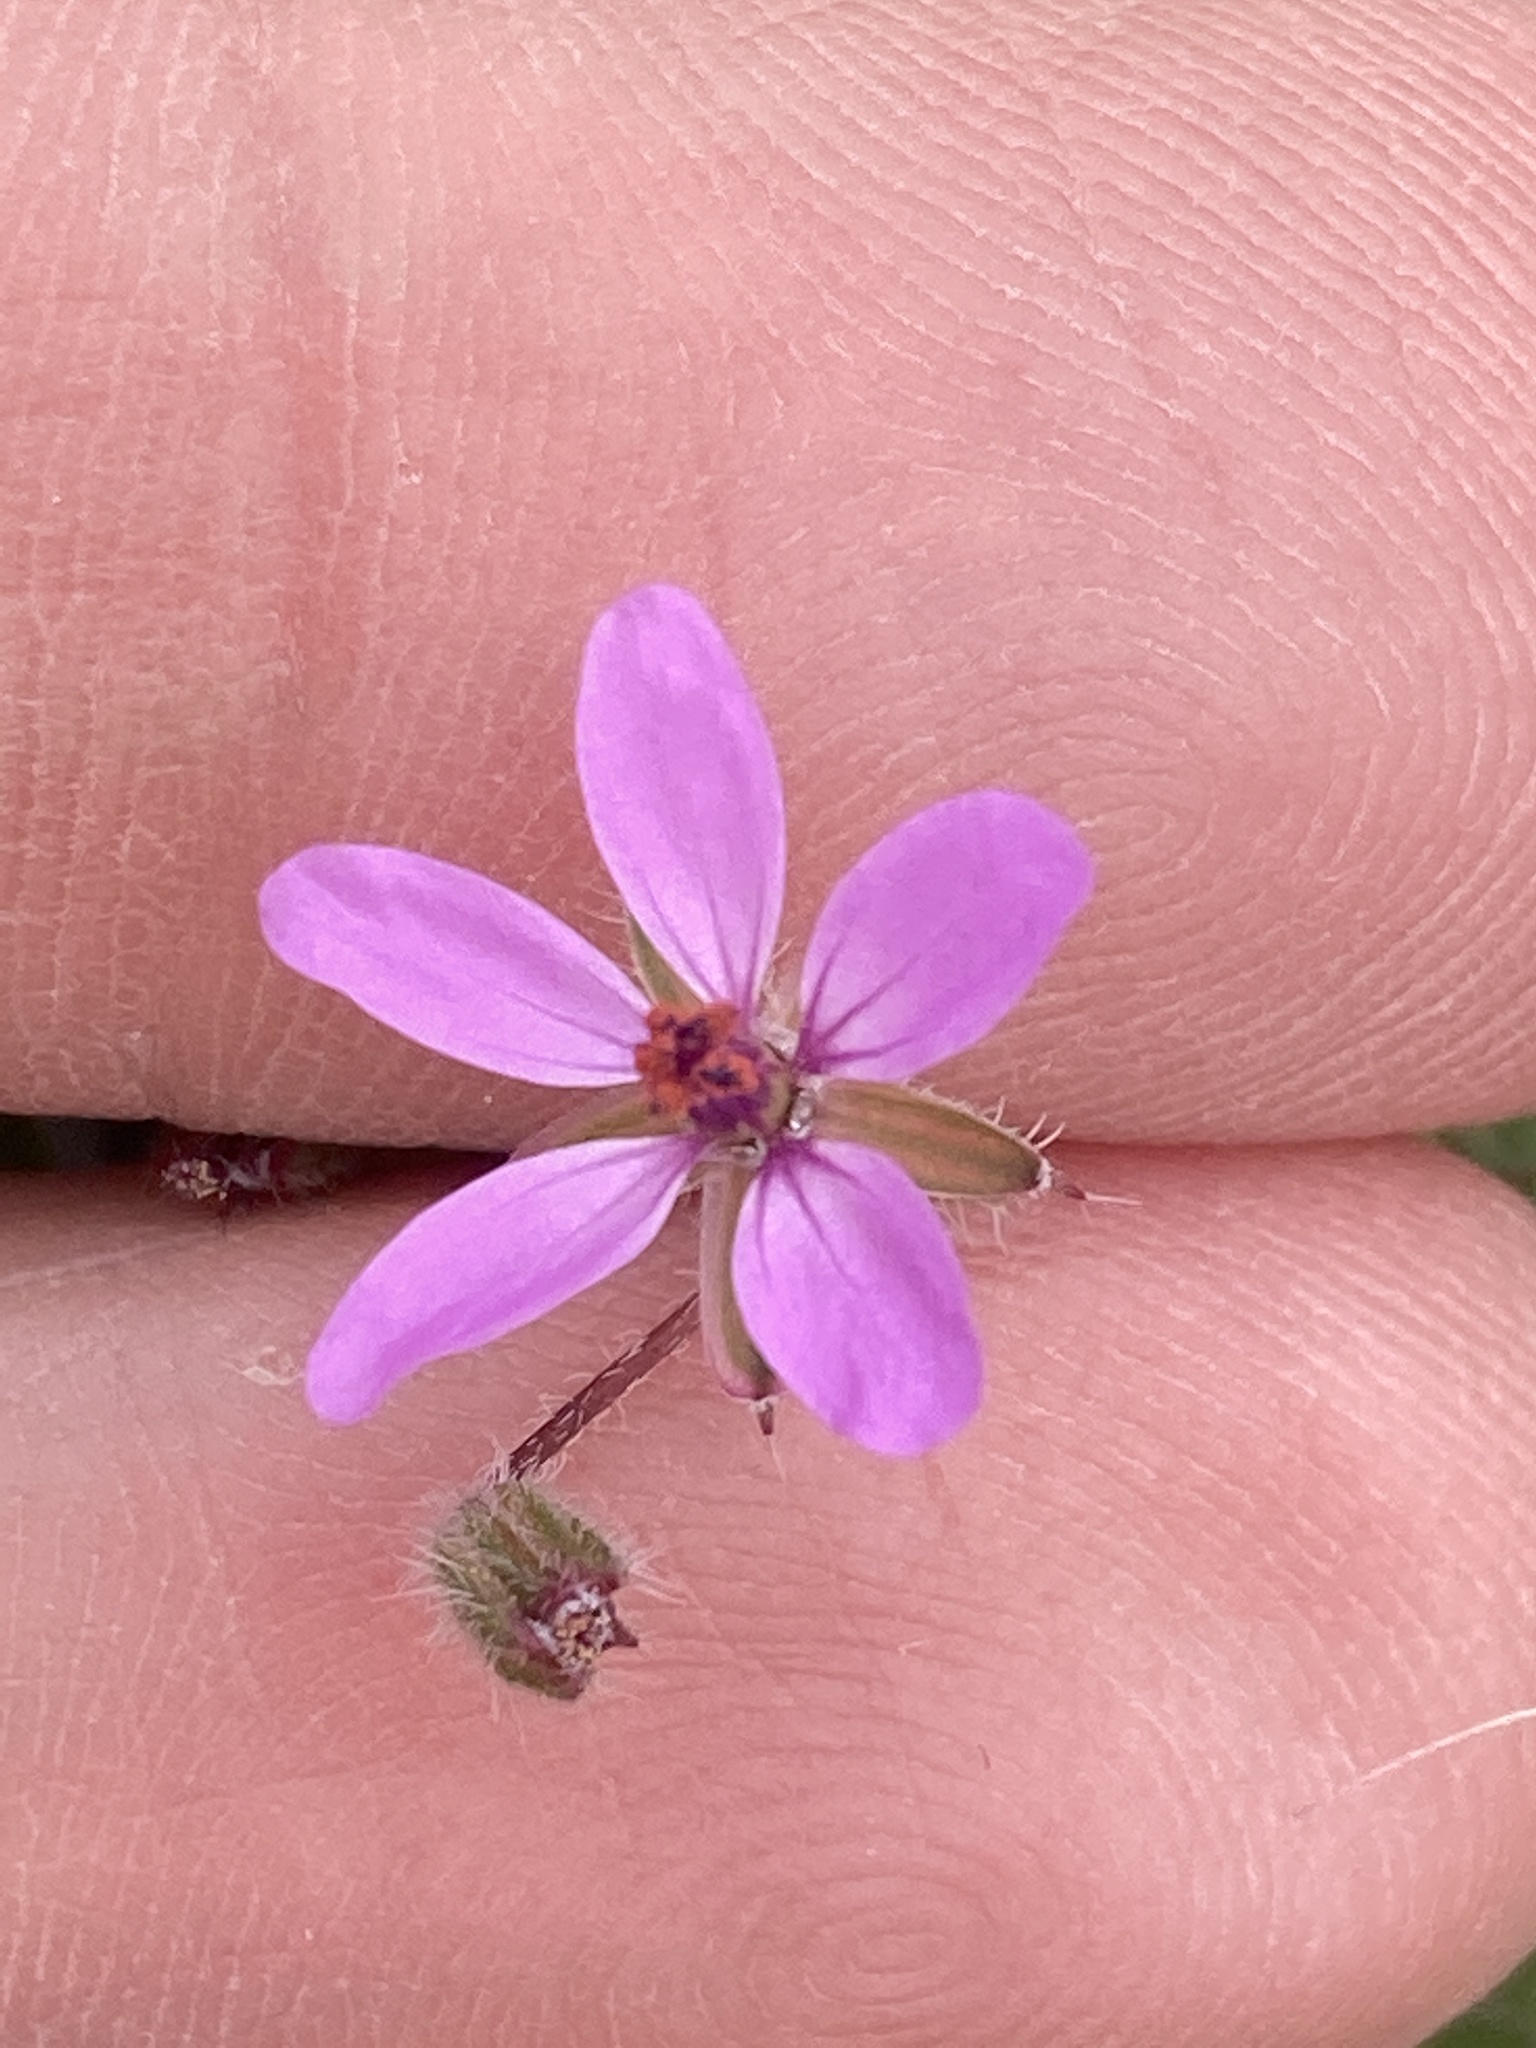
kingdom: Plantae
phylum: Tracheophyta
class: Magnoliopsida
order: Geraniales
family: Geraniaceae
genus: Erodium
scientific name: Erodium cicutarium
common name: Common stork's-bill
